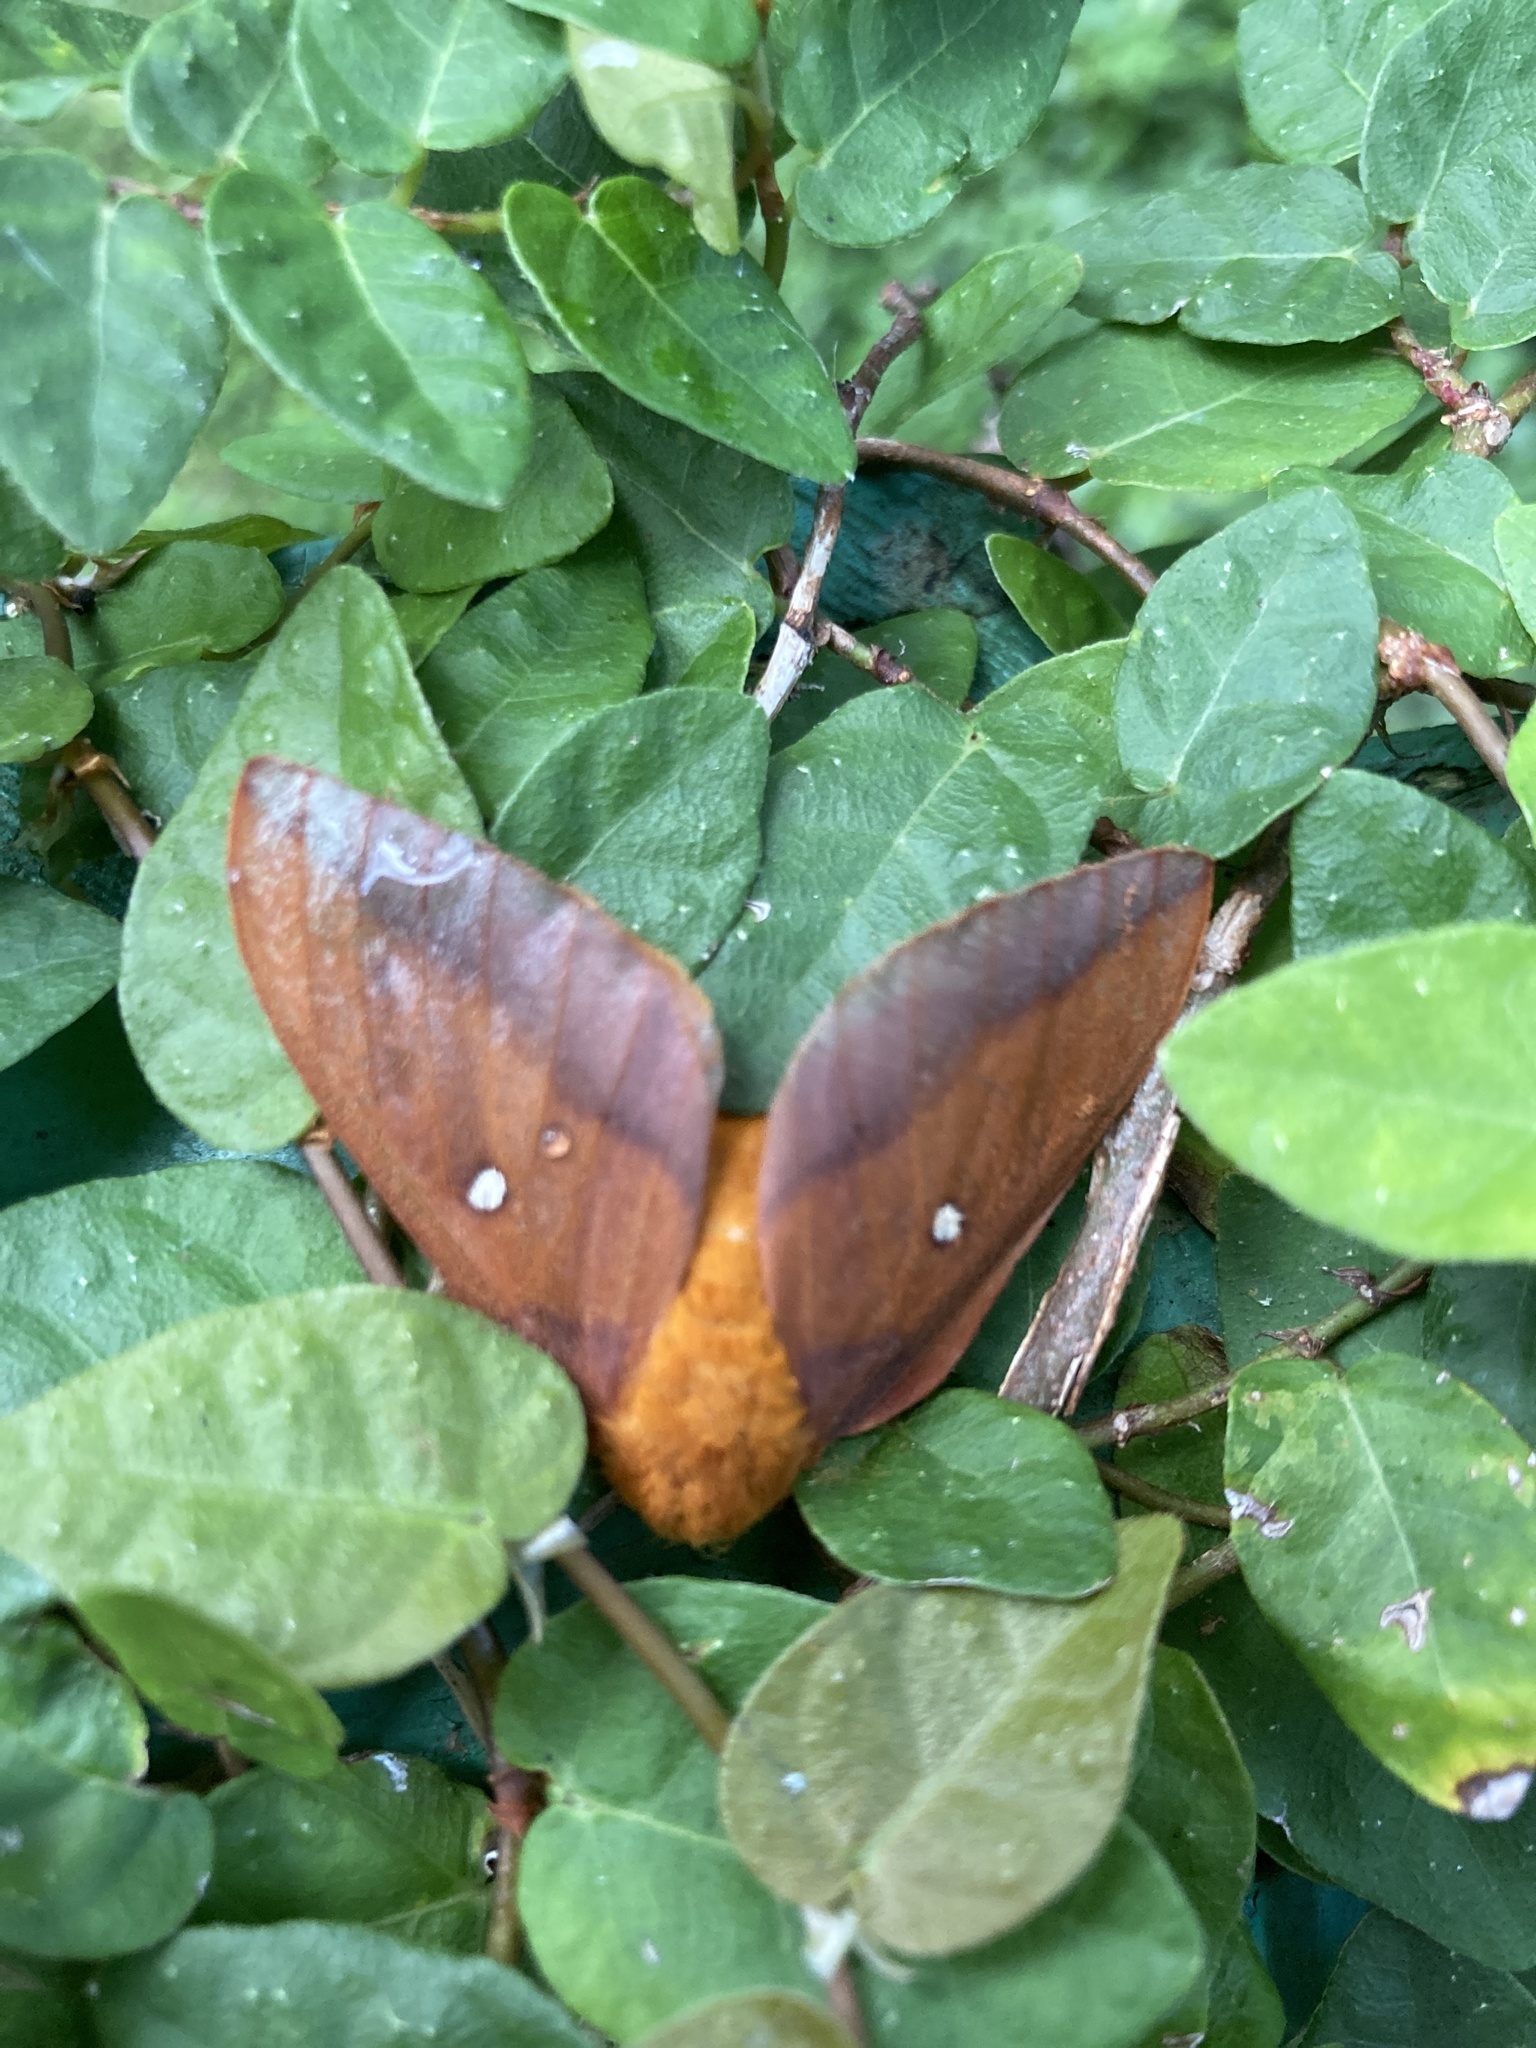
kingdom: Animalia
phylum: Arthropoda
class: Insecta
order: Lepidoptera
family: Saturniidae
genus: Anisota
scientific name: Anisota virginiensis
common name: Pink striped oakworm moth
